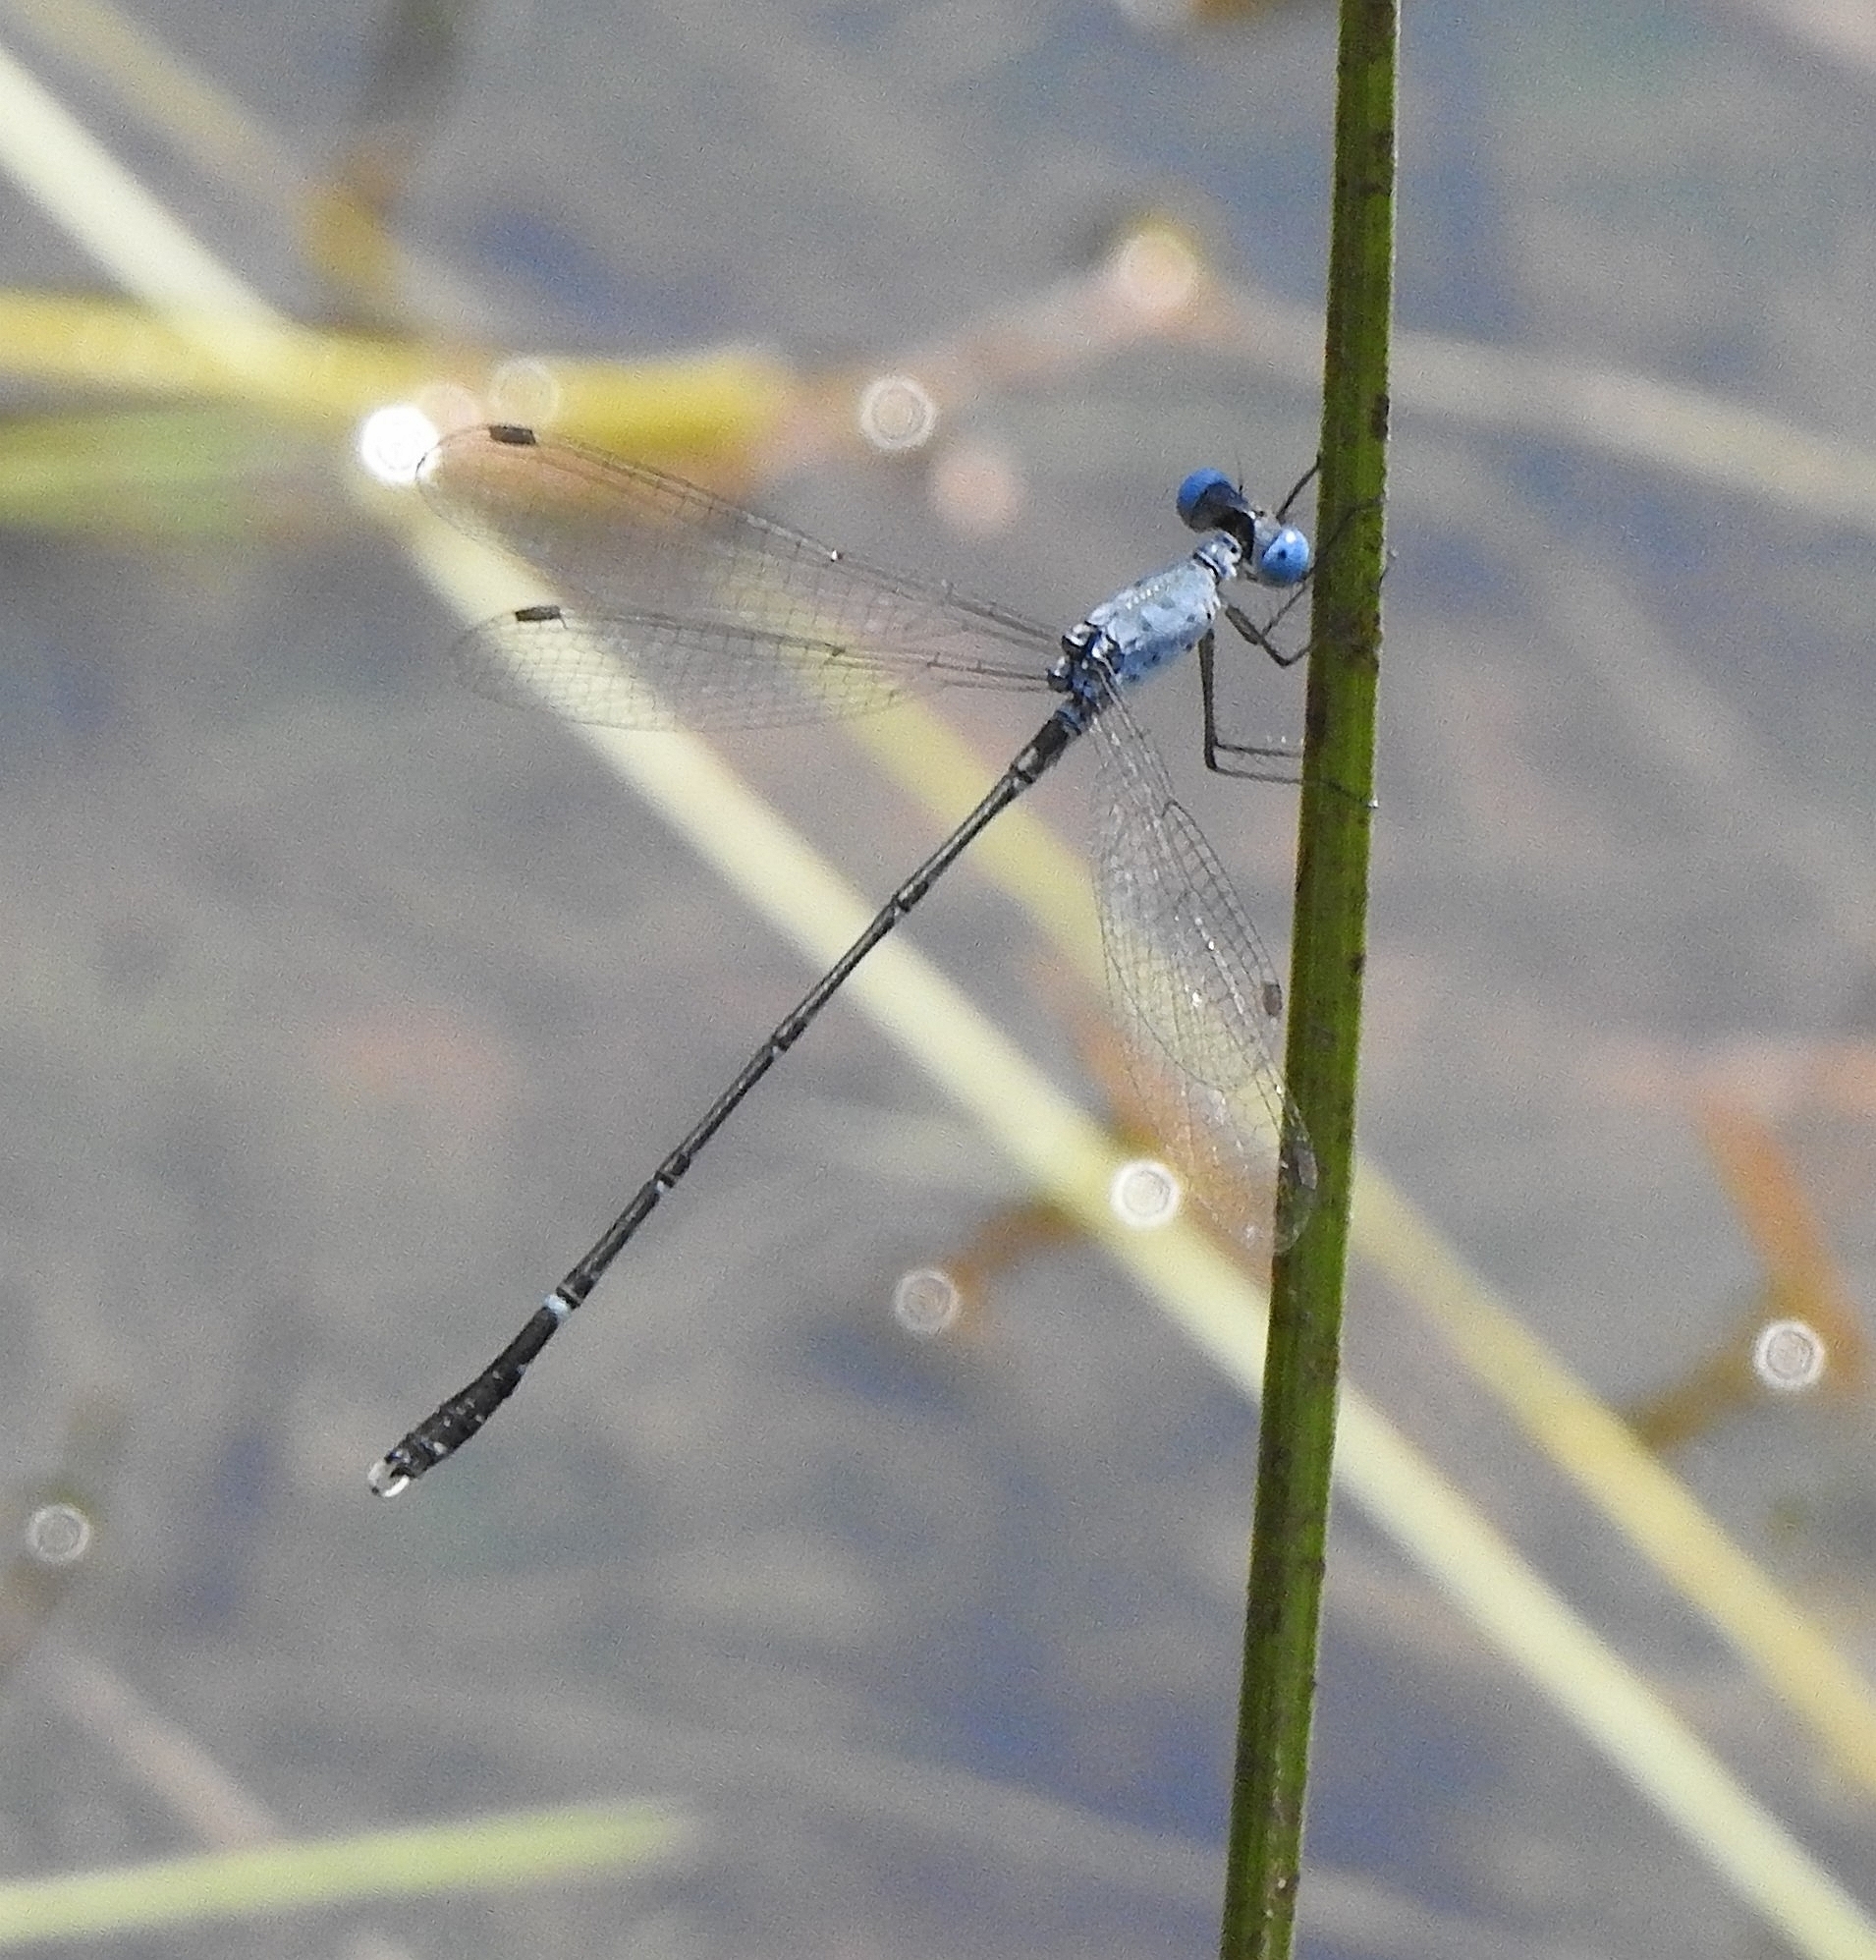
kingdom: Animalia
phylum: Arthropoda
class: Insecta
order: Odonata
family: Lestidae
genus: Lestes
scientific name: Lestes praemorsus
